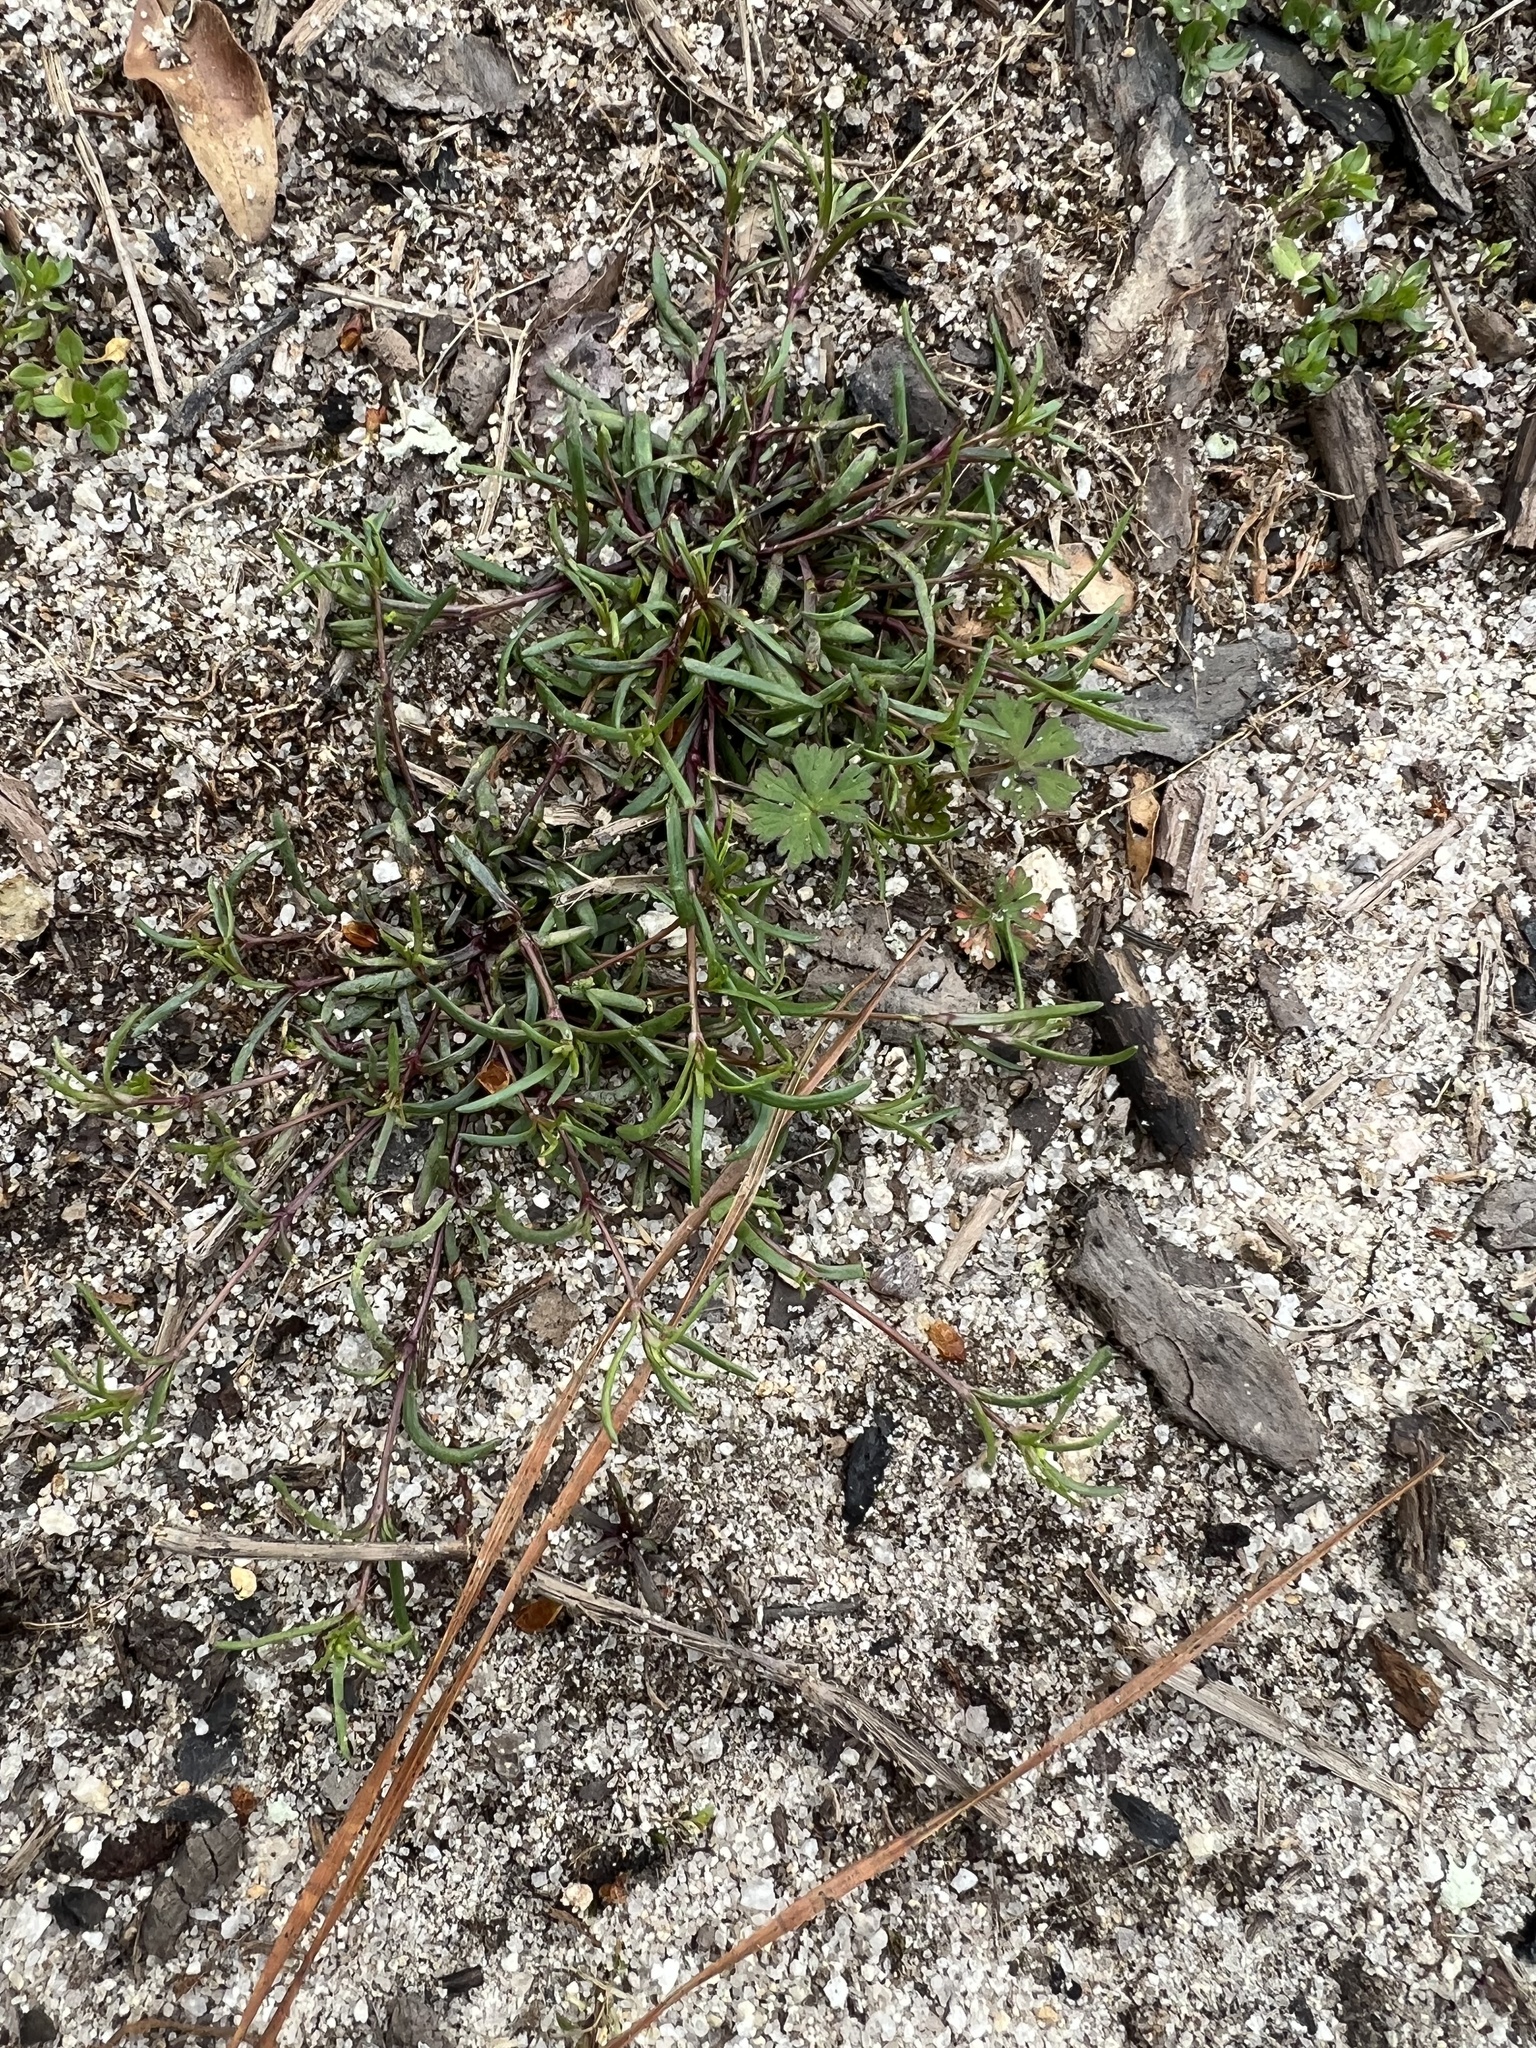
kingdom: Plantae
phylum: Tracheophyta
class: Magnoliopsida
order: Caryophyllales
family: Caryophyllaceae
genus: Geocarpon
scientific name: Geocarpon glabrum
